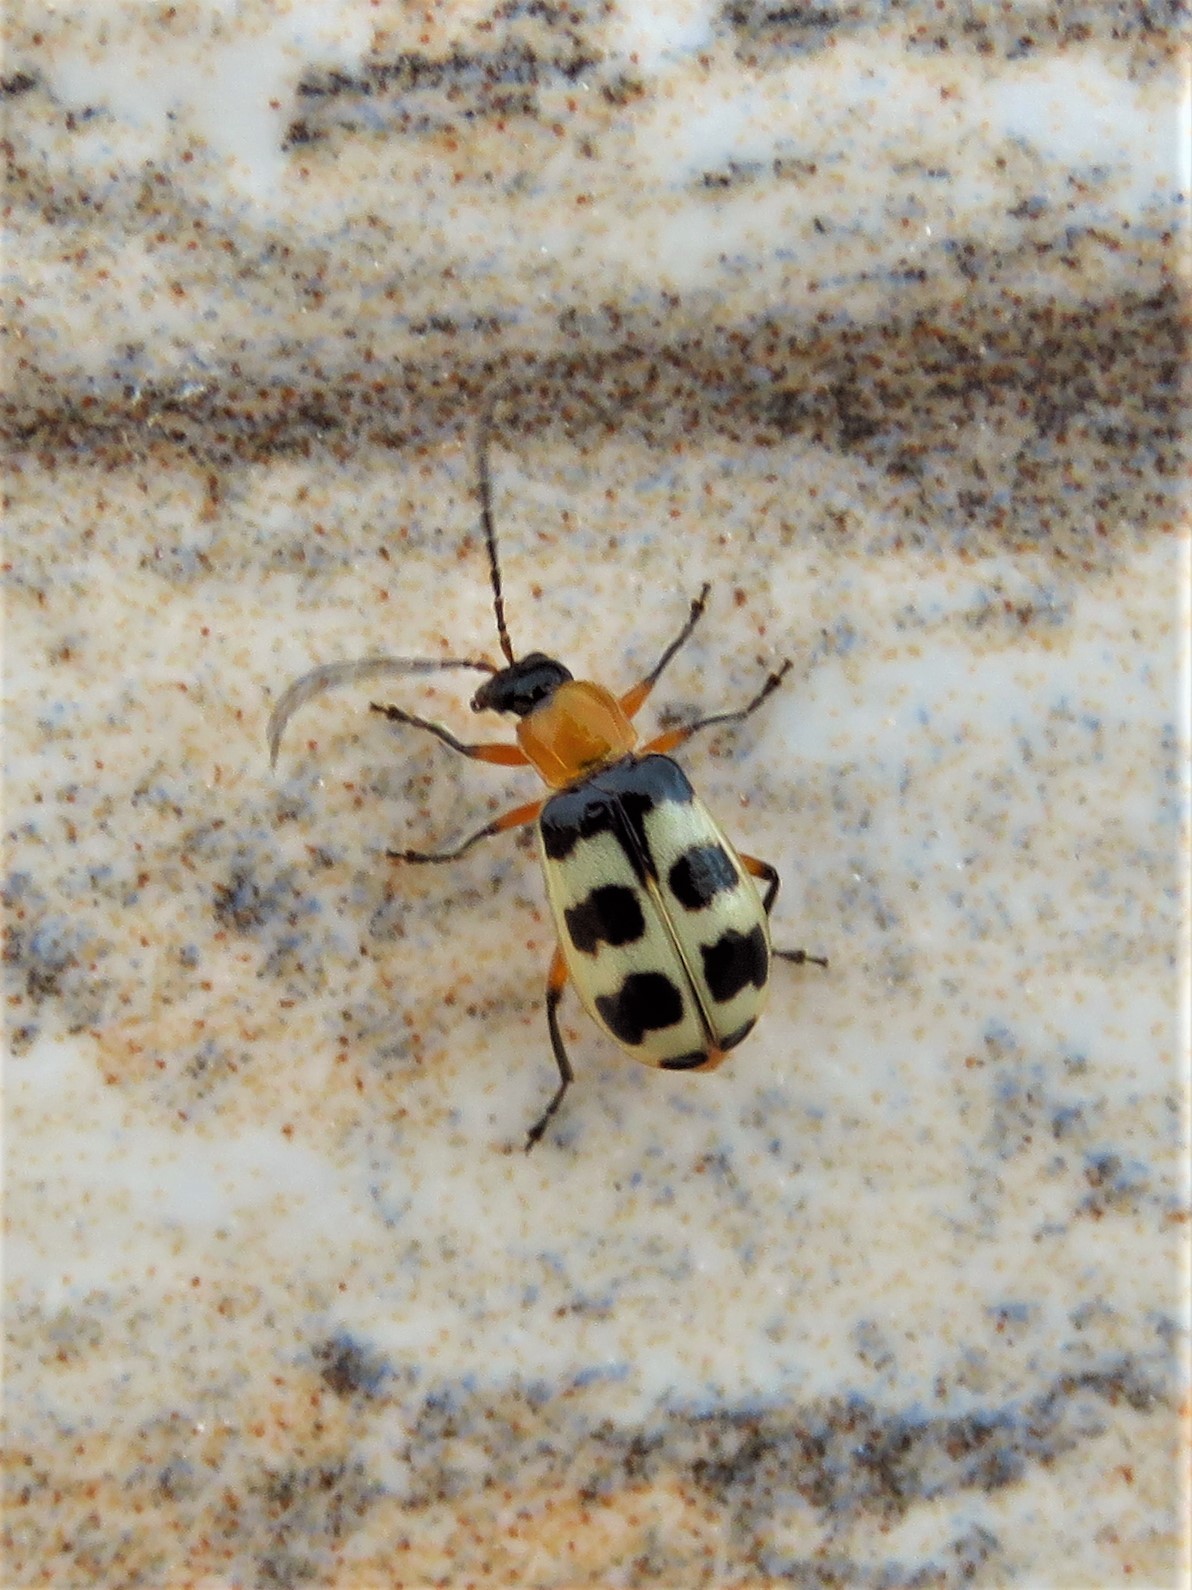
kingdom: Animalia
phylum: Arthropoda
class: Insecta
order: Coleoptera
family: Chrysomelidae
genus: Paranapiacaba
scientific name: Paranapiacaba tricincta
